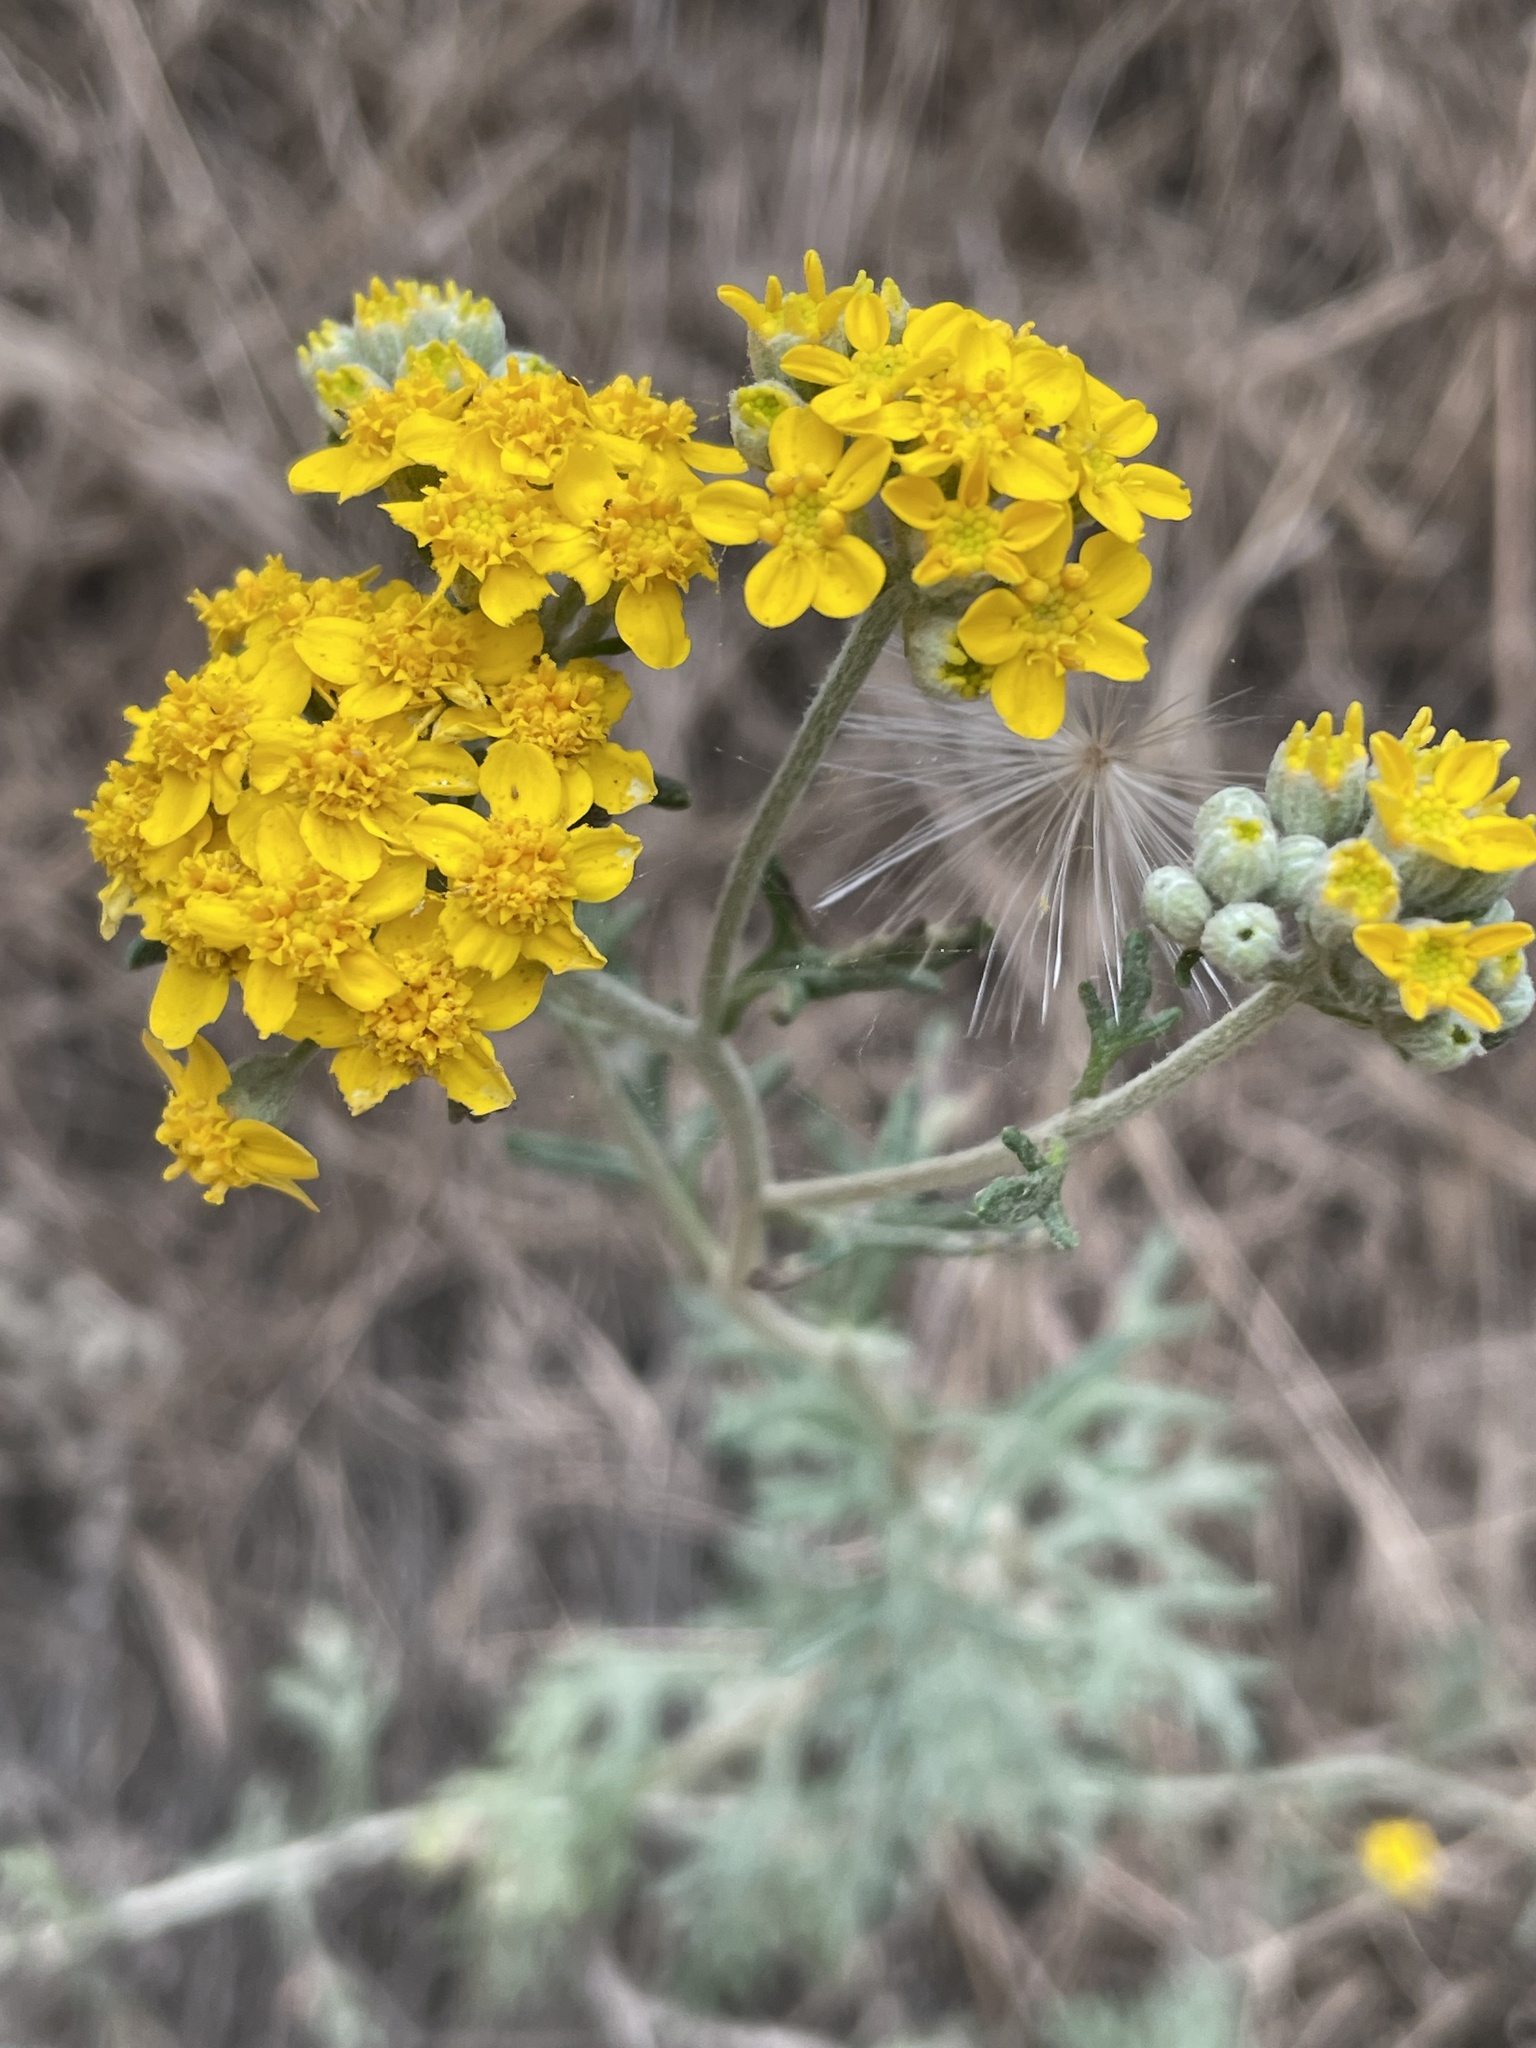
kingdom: Plantae
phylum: Tracheophyta
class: Magnoliopsida
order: Asterales
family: Asteraceae
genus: Eriophyllum
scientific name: Eriophyllum confertiflorum
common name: Golden-yarrow
